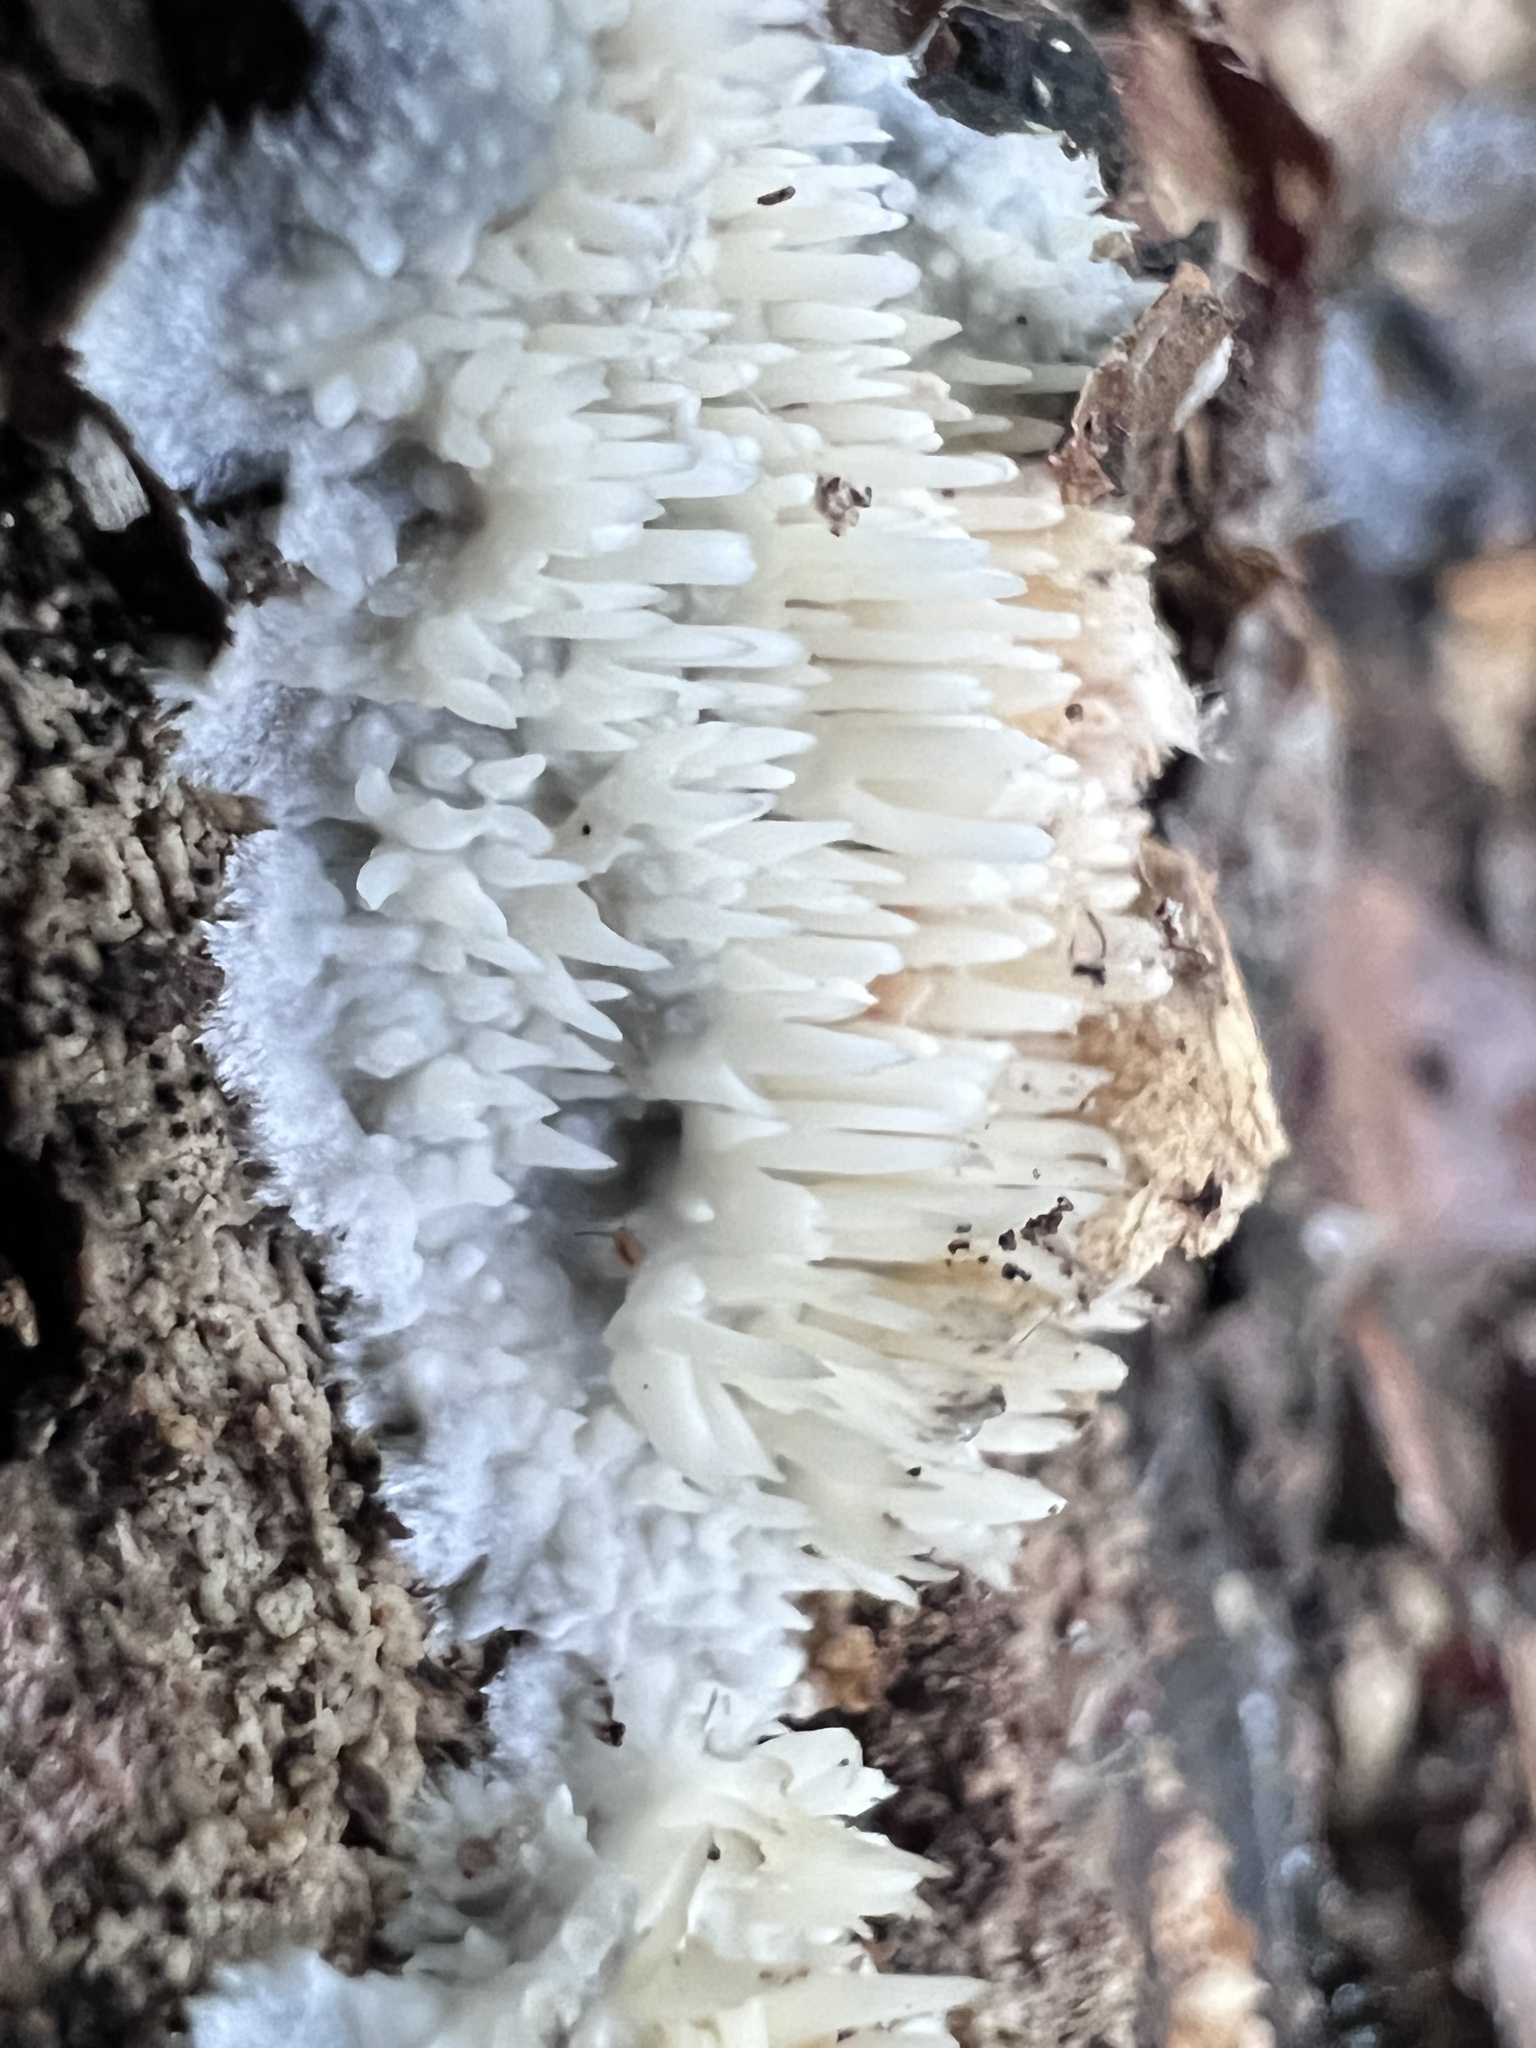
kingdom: Fungi
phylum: Basidiomycota
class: Agaricomycetes
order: Agaricales
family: Radulomycetaceae
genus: Radulomyces
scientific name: Radulomyces copelandii
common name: Asian beauty
